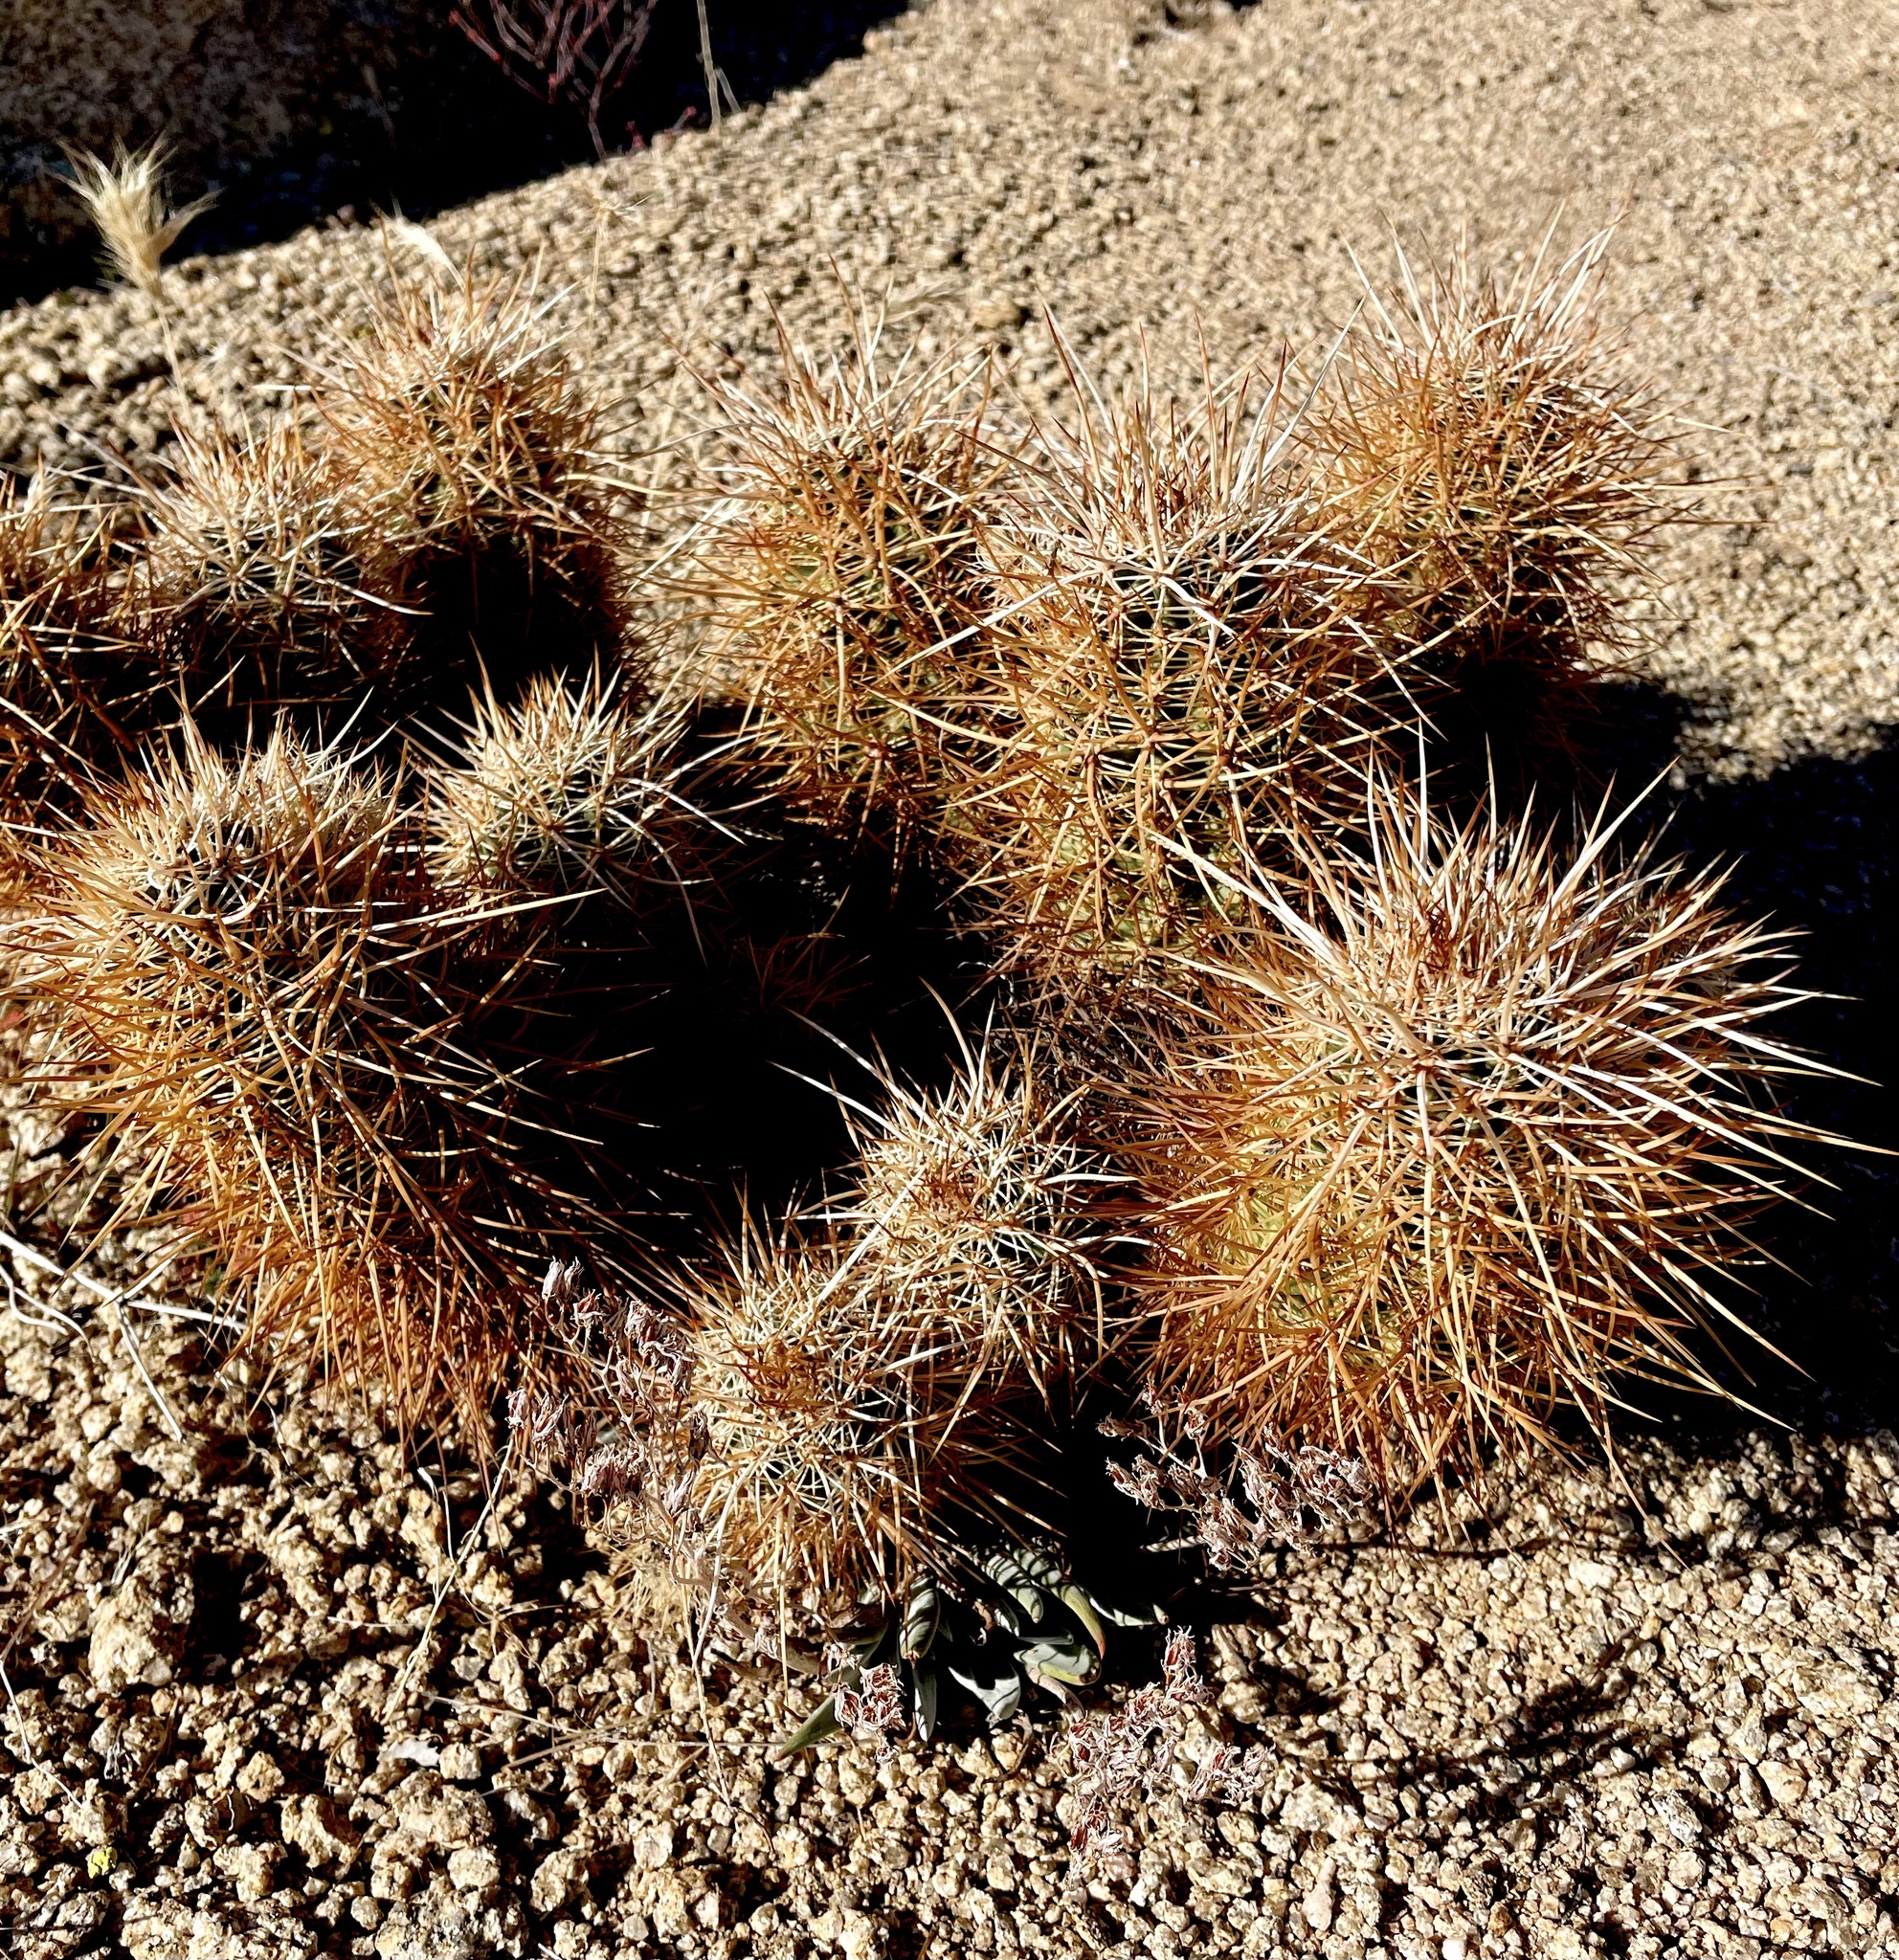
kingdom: Plantae
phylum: Tracheophyta
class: Magnoliopsida
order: Caryophyllales
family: Cactaceae
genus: Echinocereus
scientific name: Echinocereus engelmannii
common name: Engelmann's hedgehog cactus
